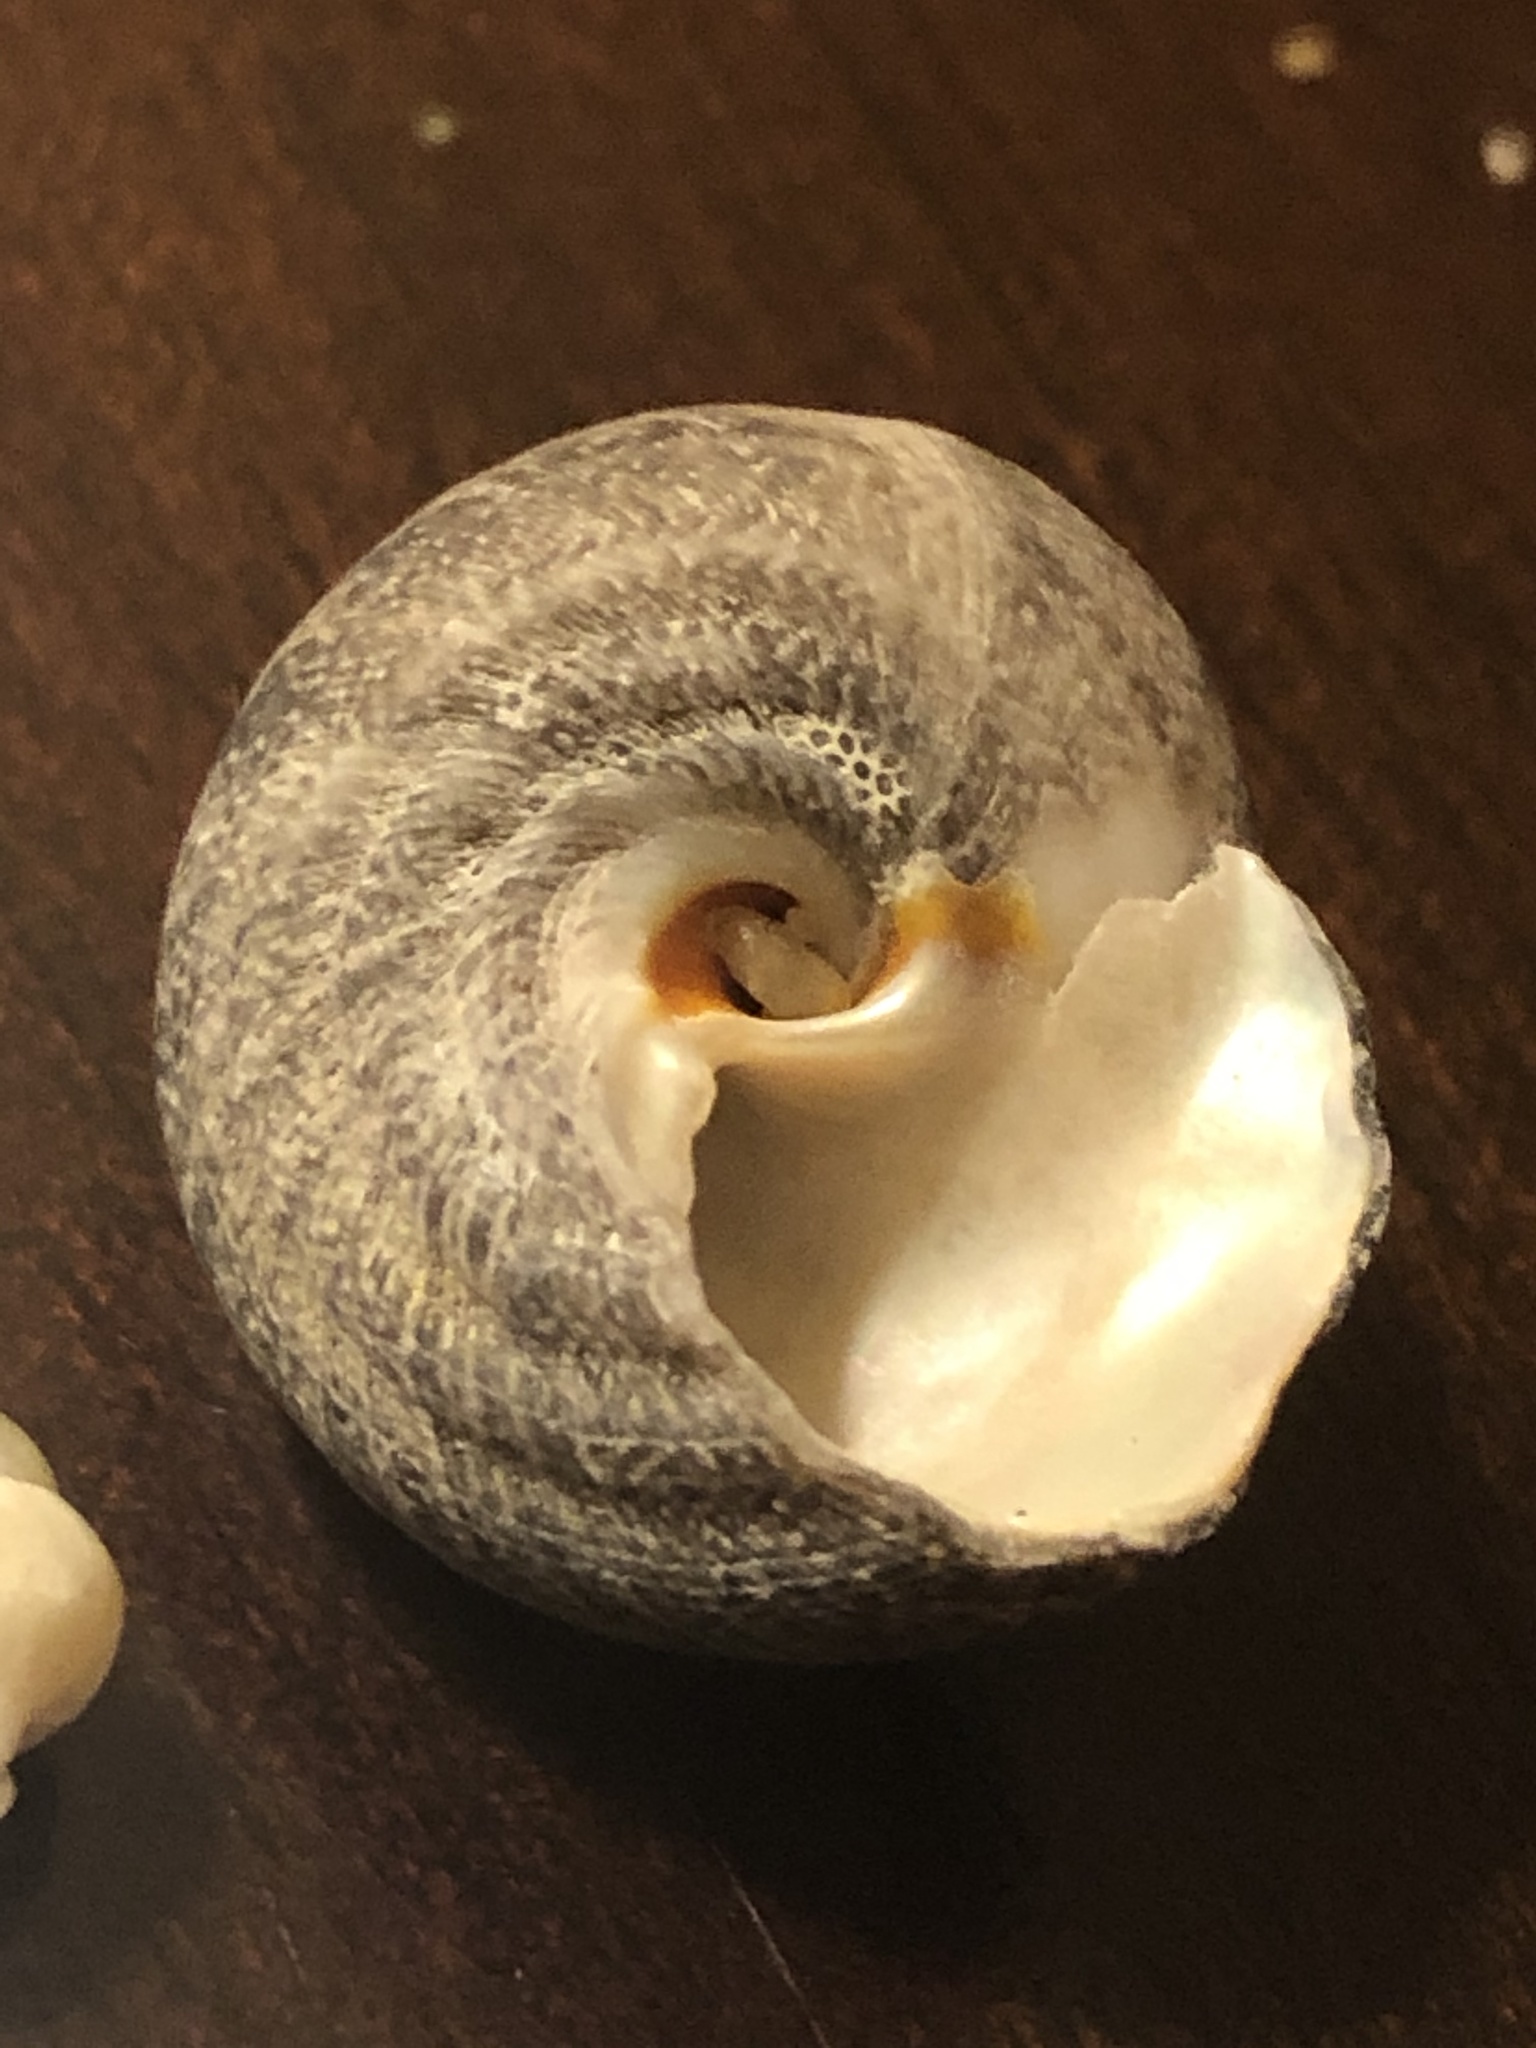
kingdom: Animalia
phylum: Mollusca
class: Gastropoda
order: Trochida
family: Tegulidae
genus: Tegula
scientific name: Tegula aureotincta
